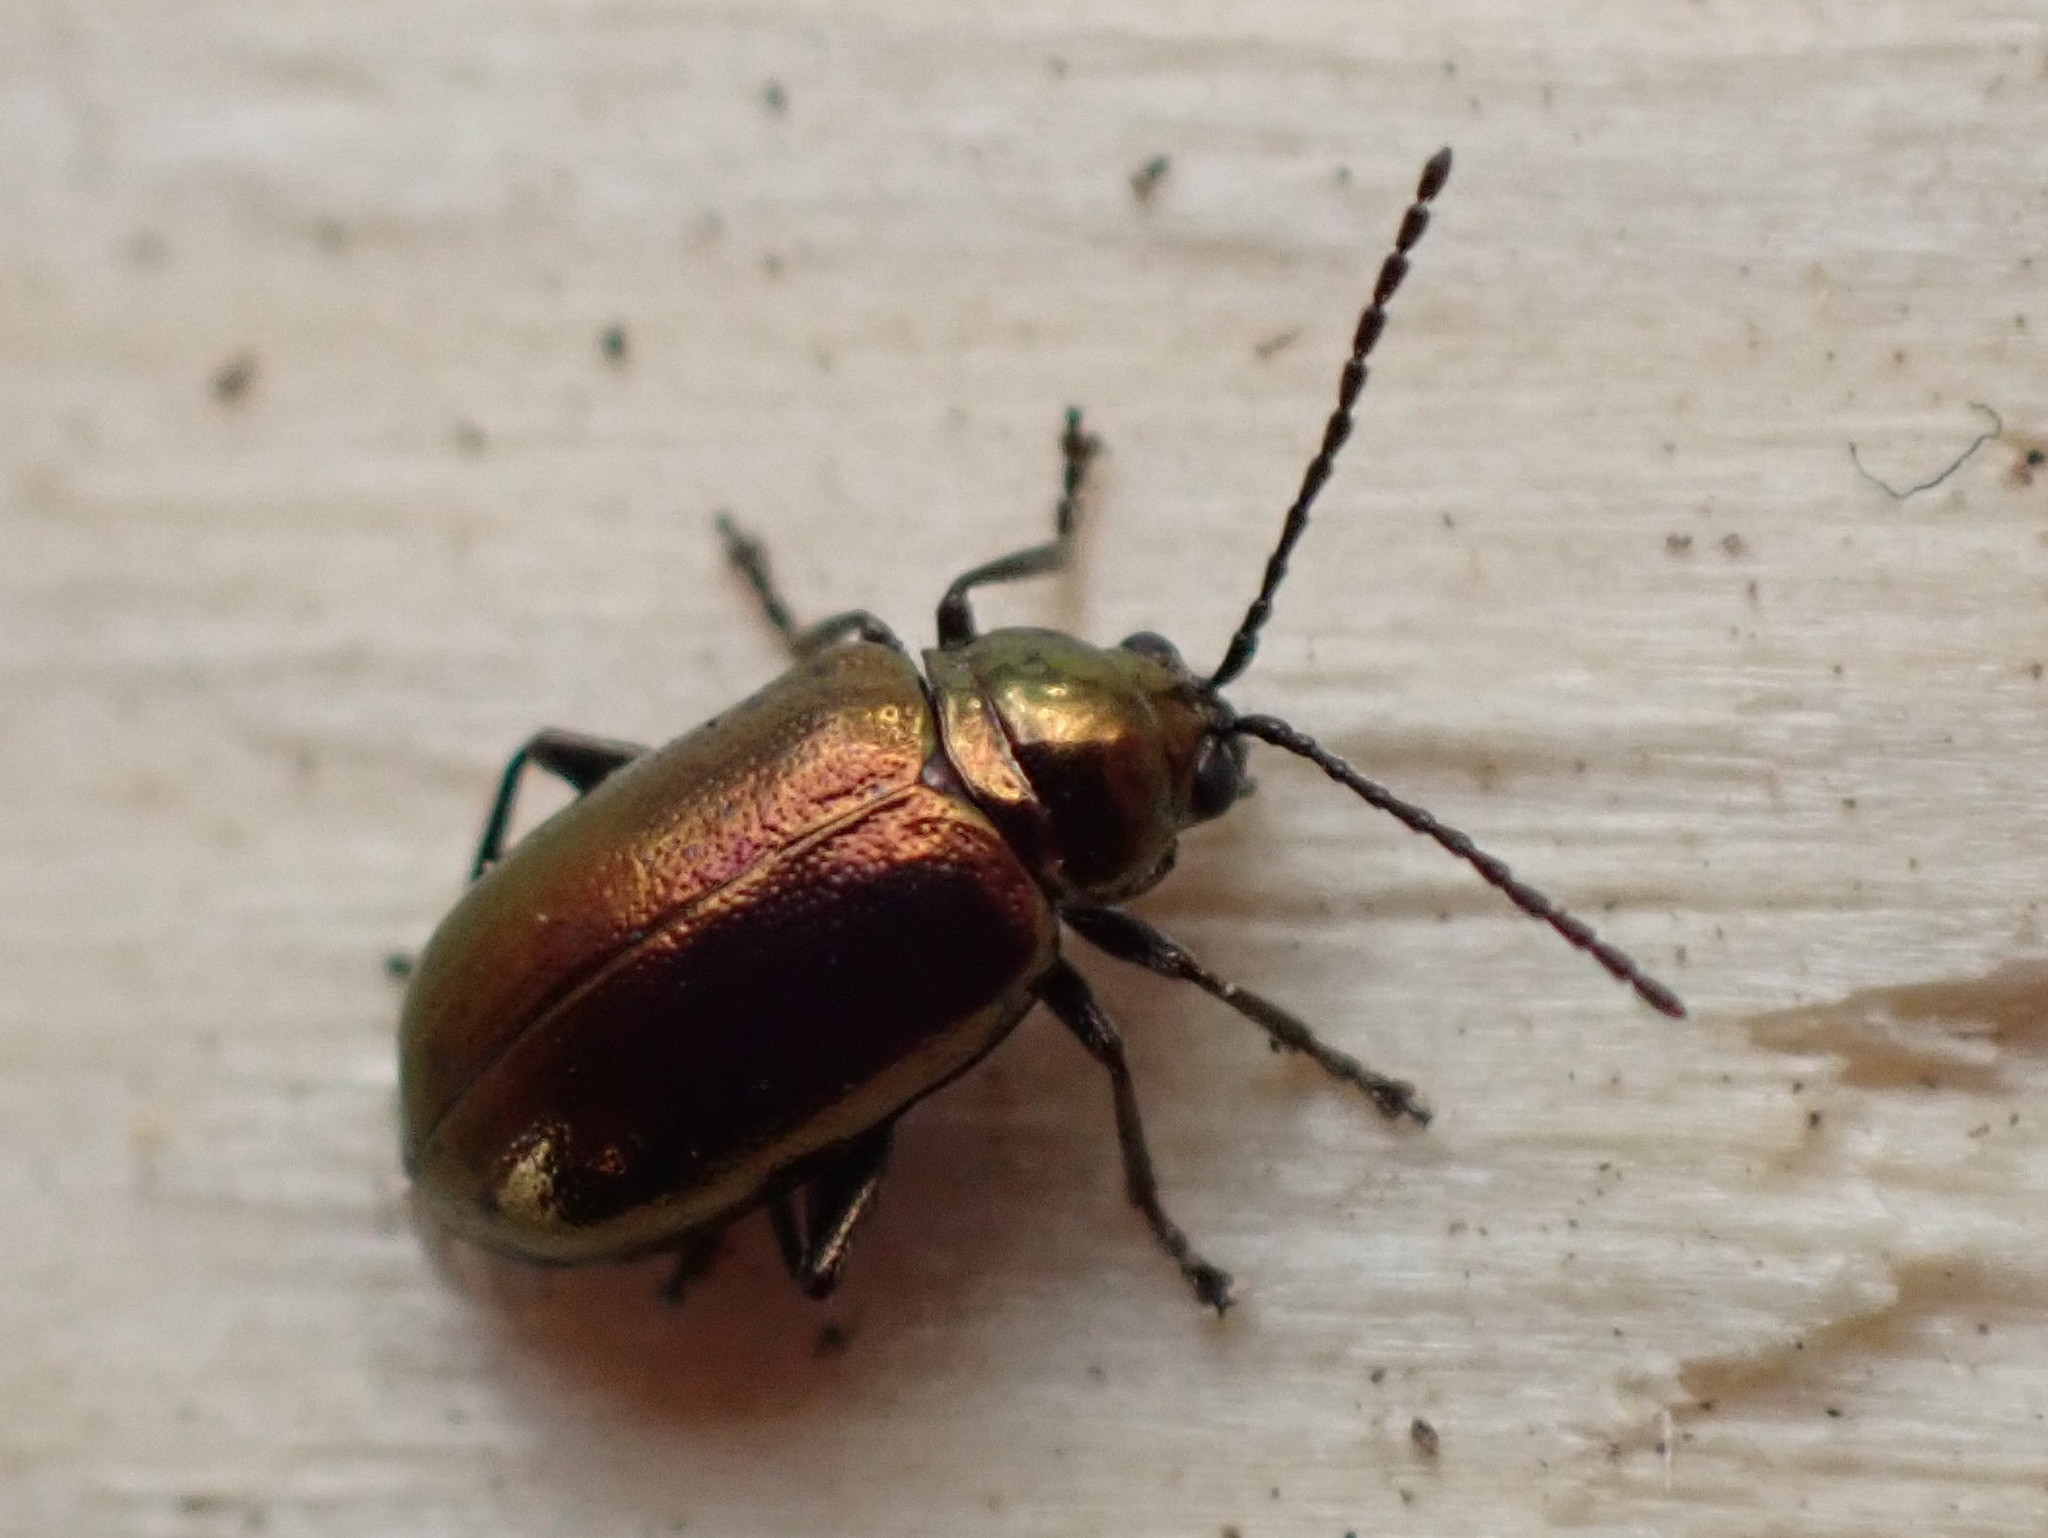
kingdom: Animalia
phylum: Arthropoda
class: Insecta
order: Coleoptera
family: Chrysomelidae
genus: Altica
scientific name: Altica kalmiae
